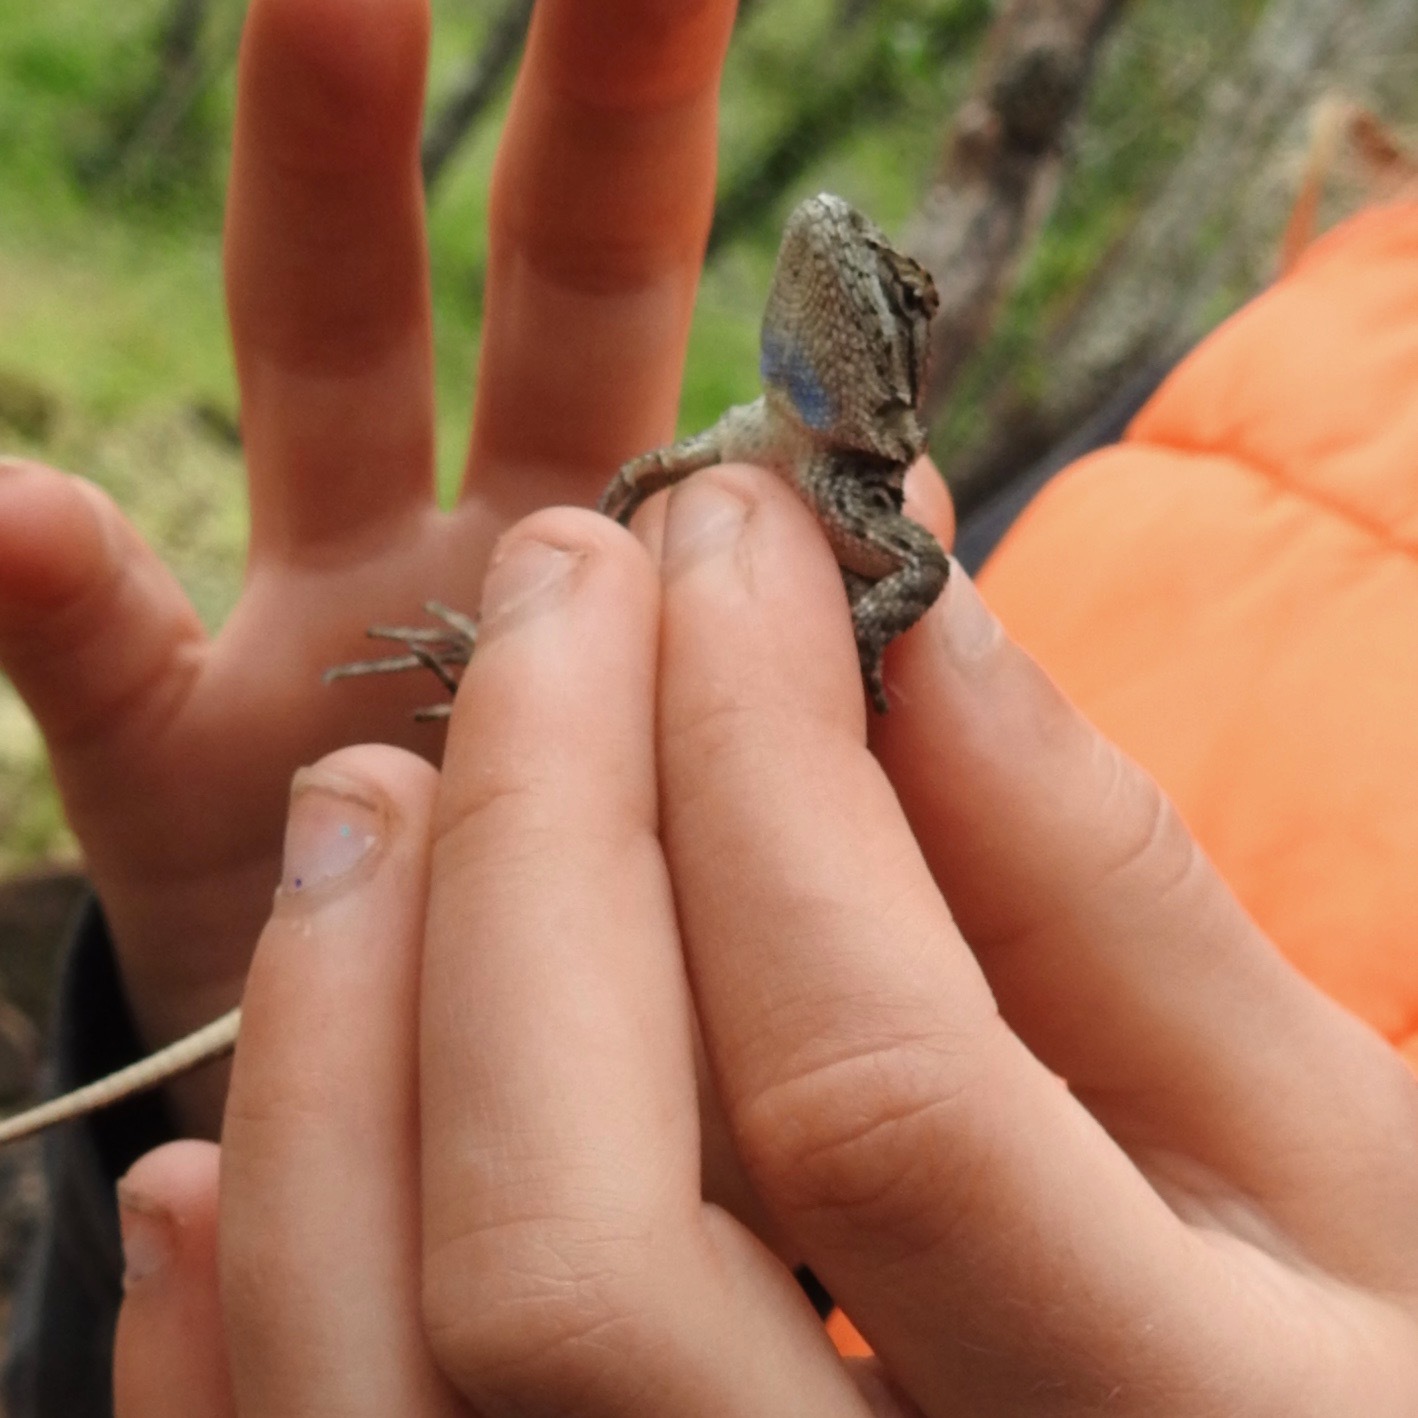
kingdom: Animalia
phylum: Chordata
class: Squamata
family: Phrynosomatidae
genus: Sceloporus
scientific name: Sceloporus occidentalis
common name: Western fence lizard
